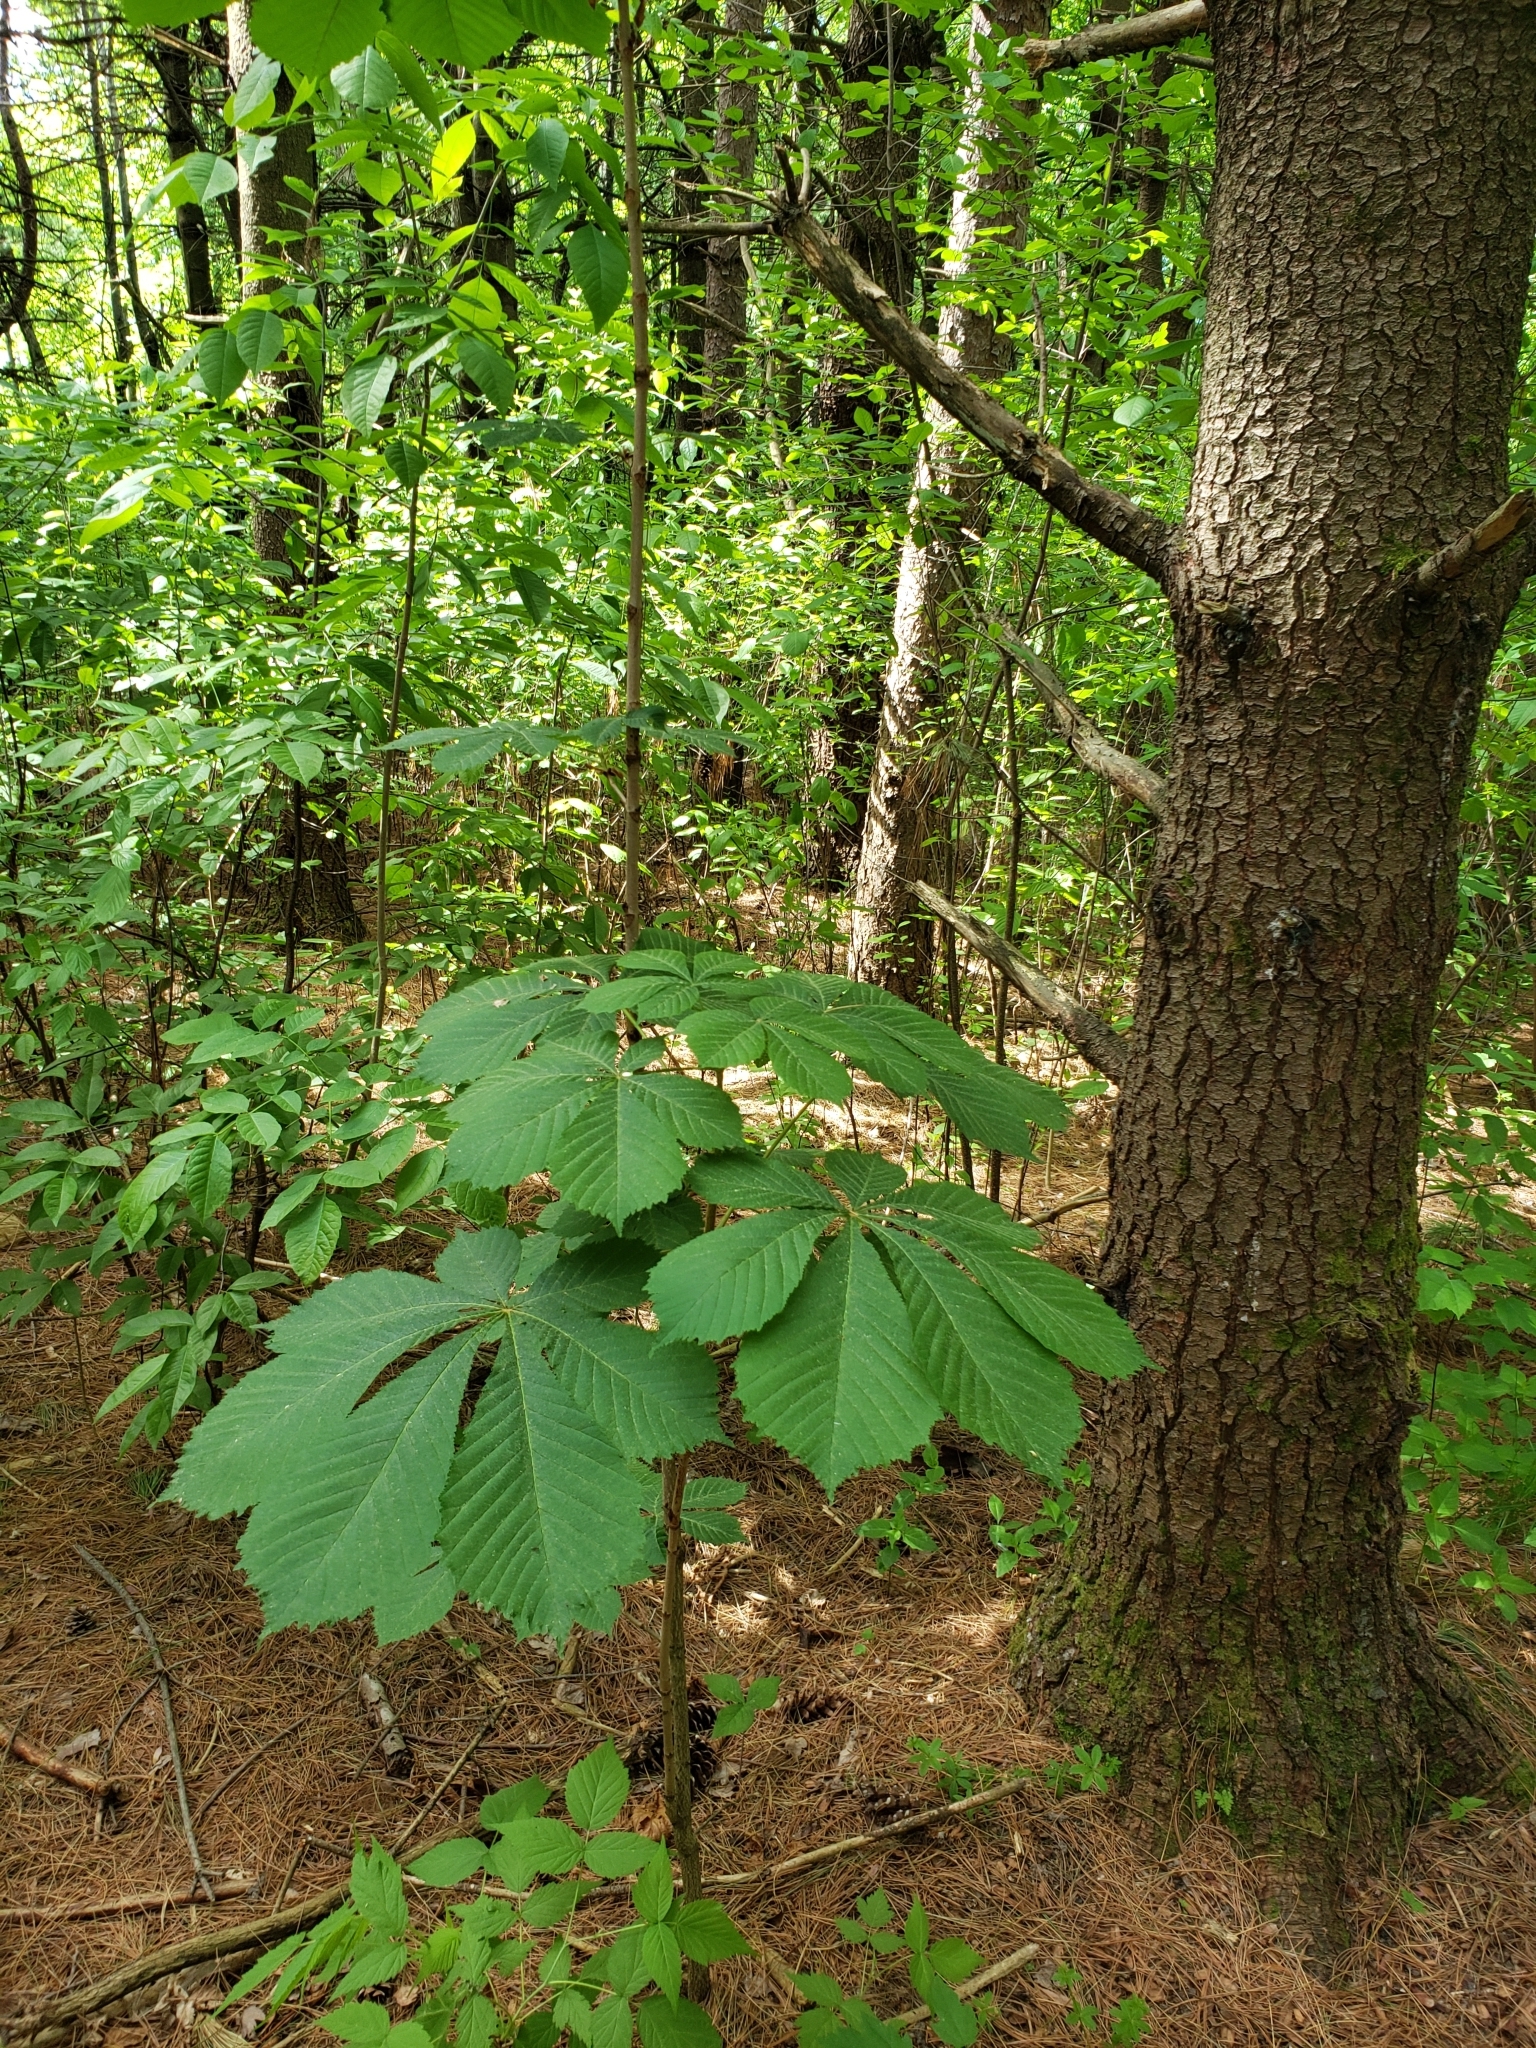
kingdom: Plantae
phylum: Tracheophyta
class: Magnoliopsida
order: Sapindales
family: Sapindaceae
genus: Aesculus
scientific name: Aesculus hippocastanum
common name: Horse-chestnut
